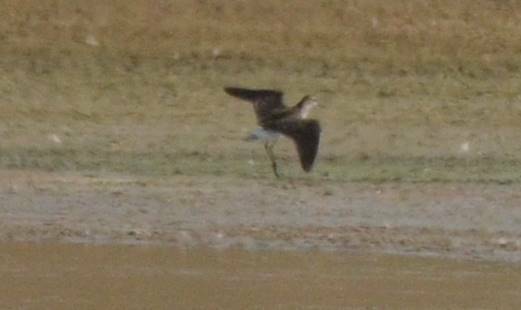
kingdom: Animalia
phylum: Chordata
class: Aves
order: Charadriiformes
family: Scolopacidae
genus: Tringa
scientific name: Tringa glareola
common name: Wood sandpiper
